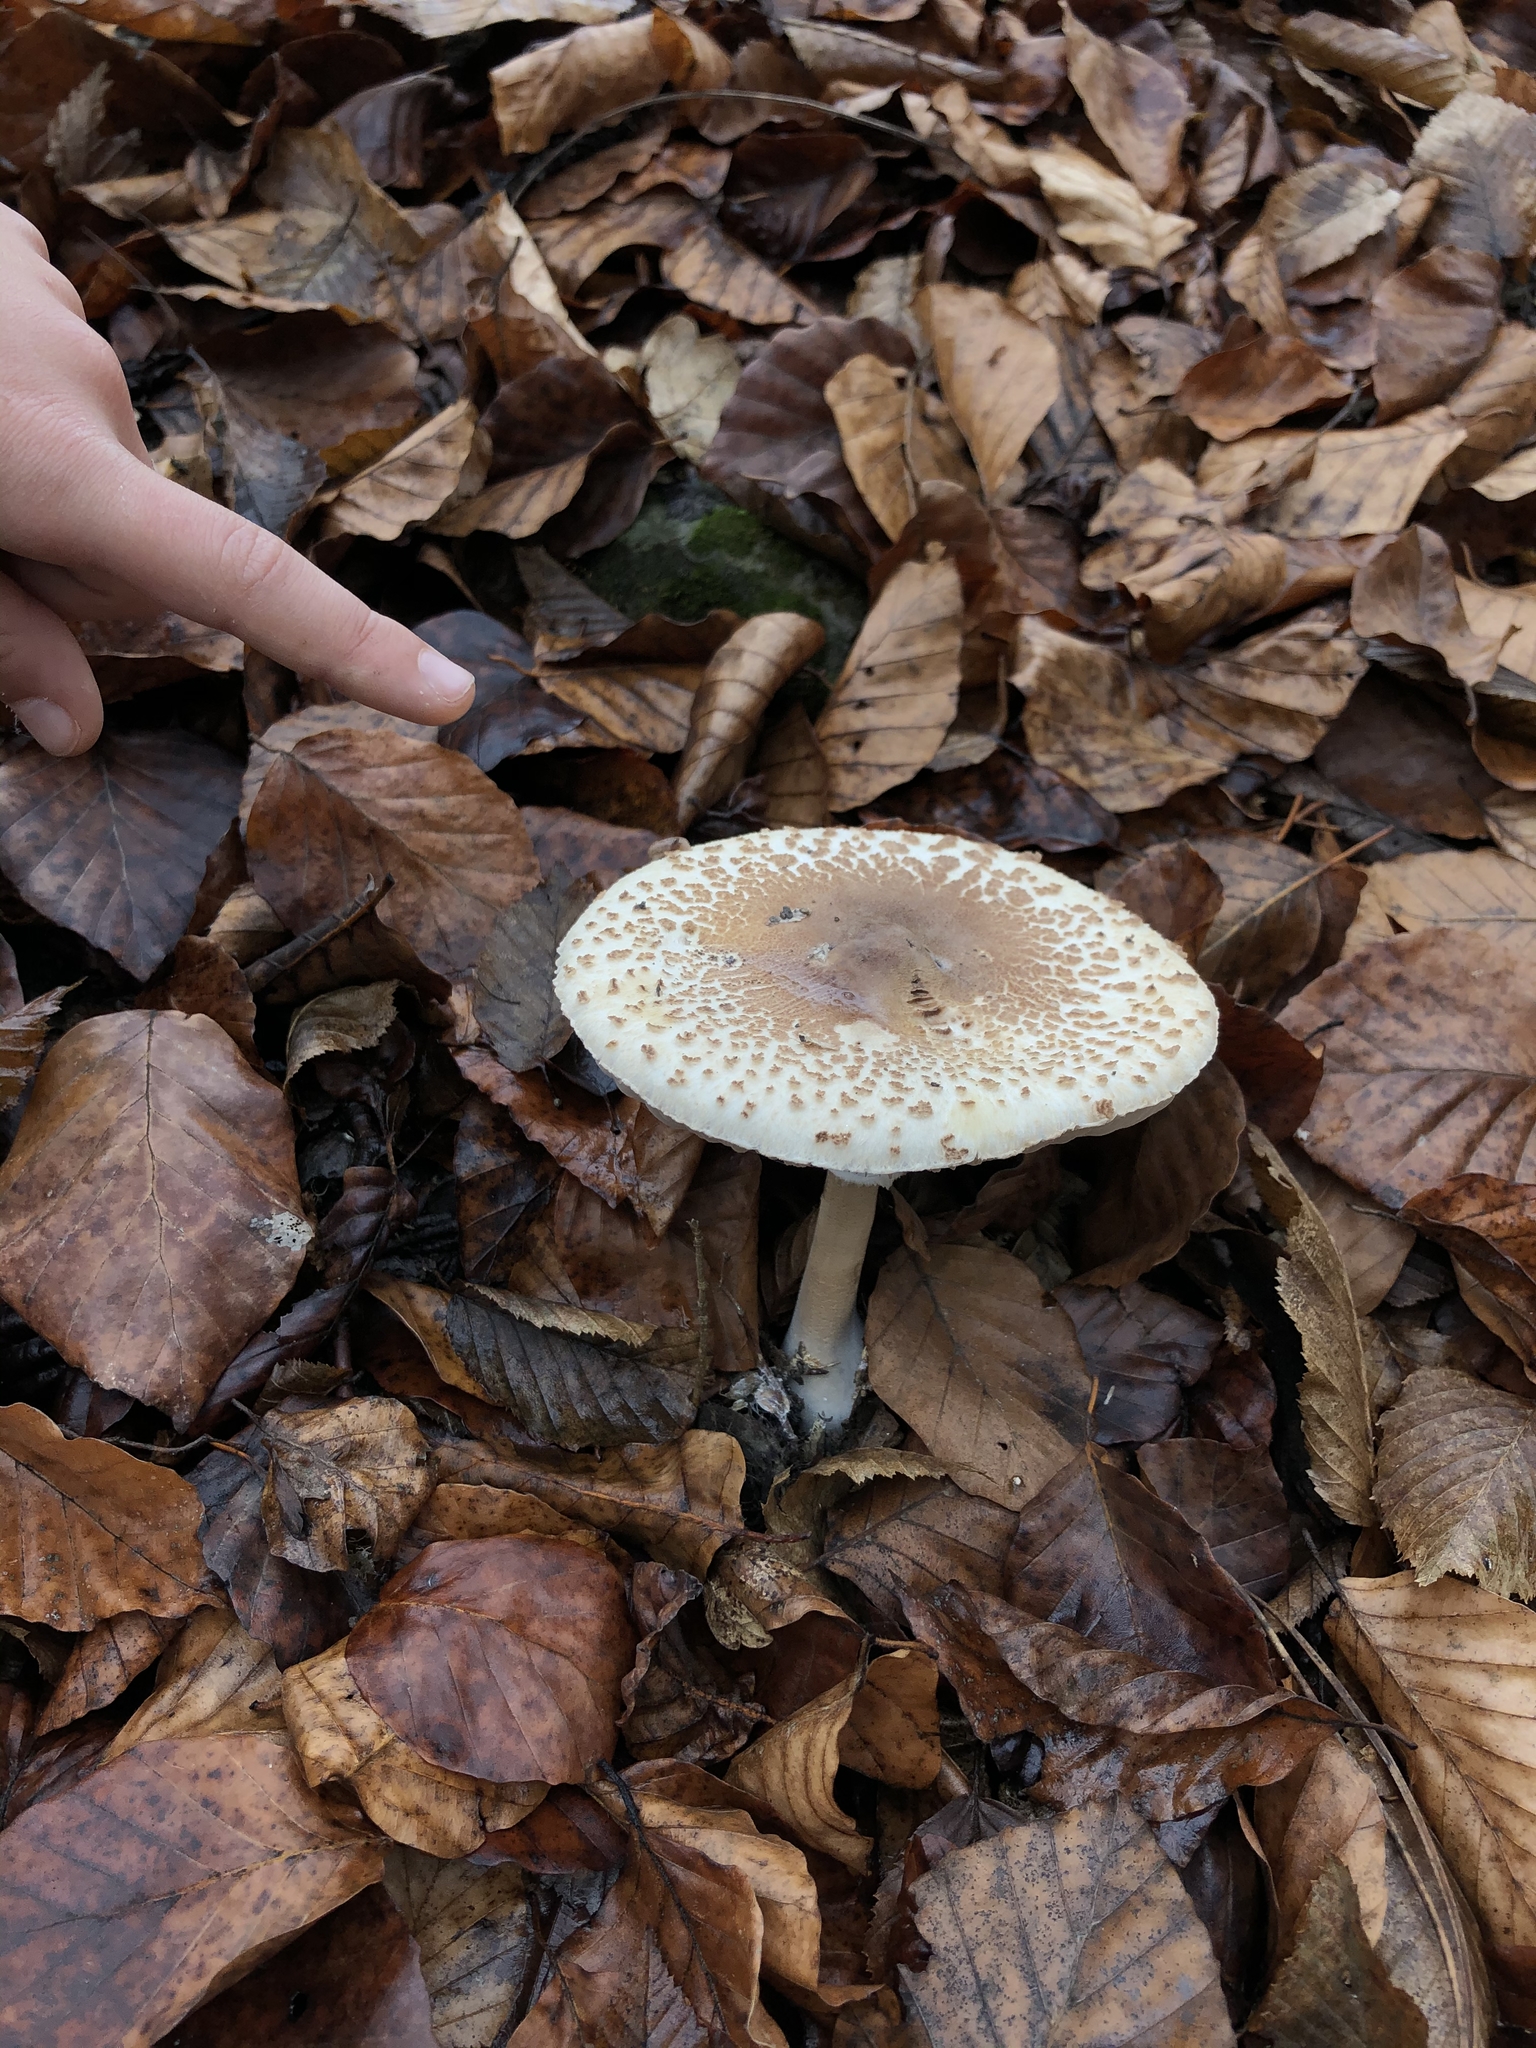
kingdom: Fungi
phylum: Basidiomycota
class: Agaricomycetes
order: Agaricales
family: Agaricaceae
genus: Macrolepiota
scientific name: Macrolepiota mastoidea
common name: Slender parasol
